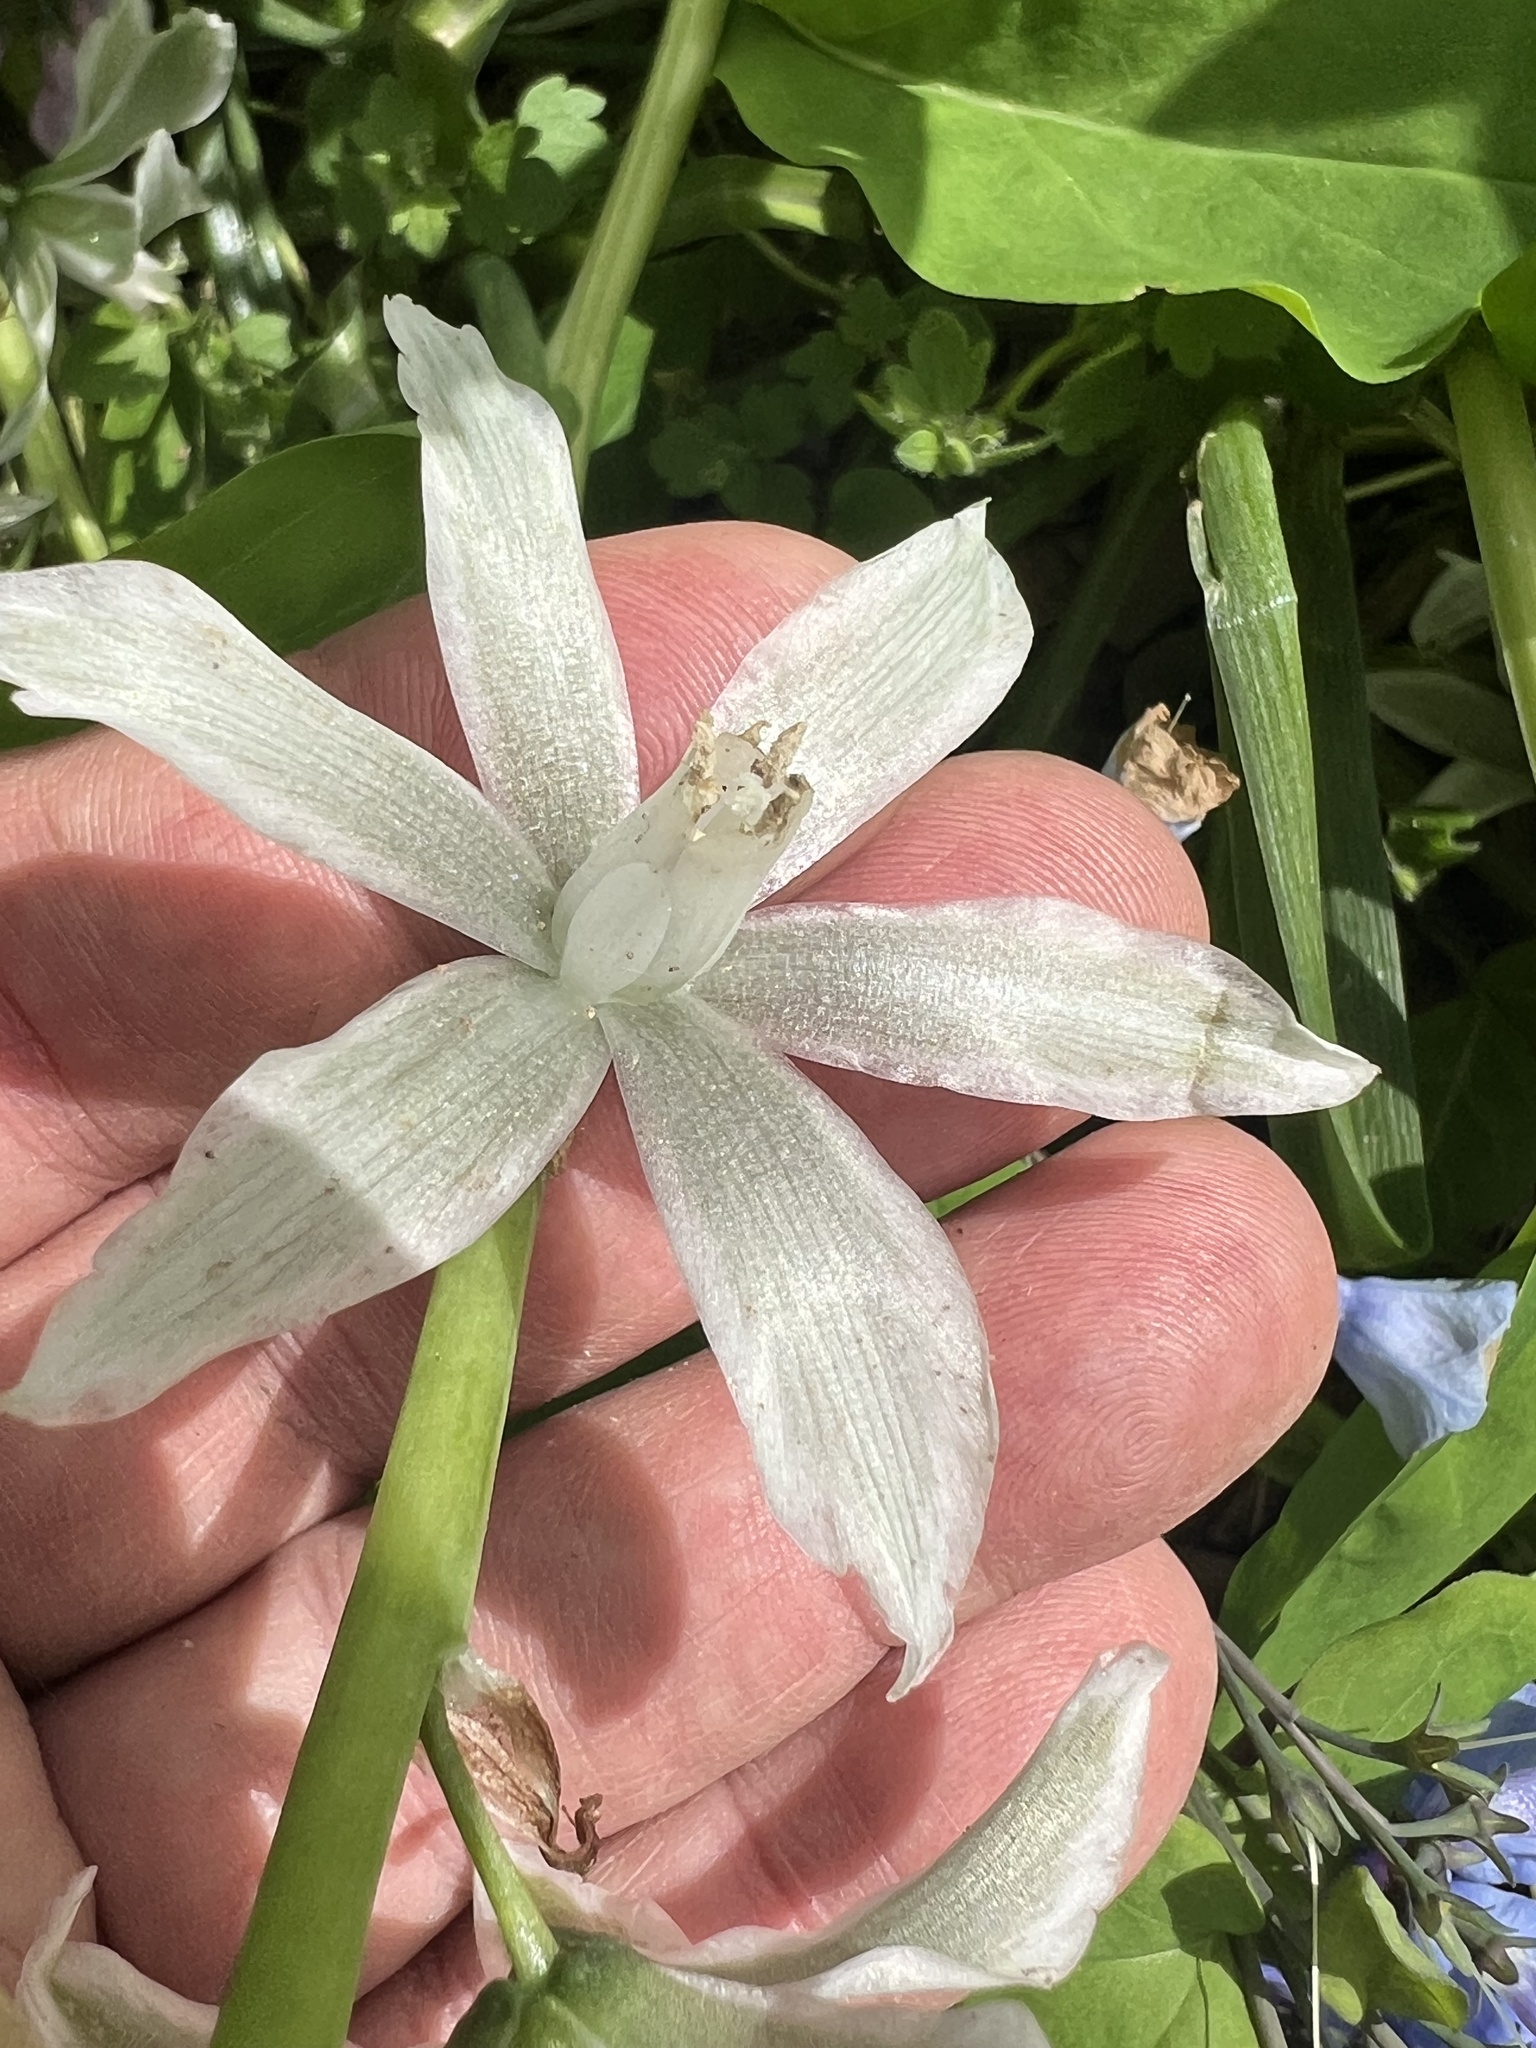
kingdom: Plantae
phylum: Tracheophyta
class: Liliopsida
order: Asparagales
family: Asparagaceae
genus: Ornithogalum
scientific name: Ornithogalum nutans
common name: Drooping star-of-bethlehem
